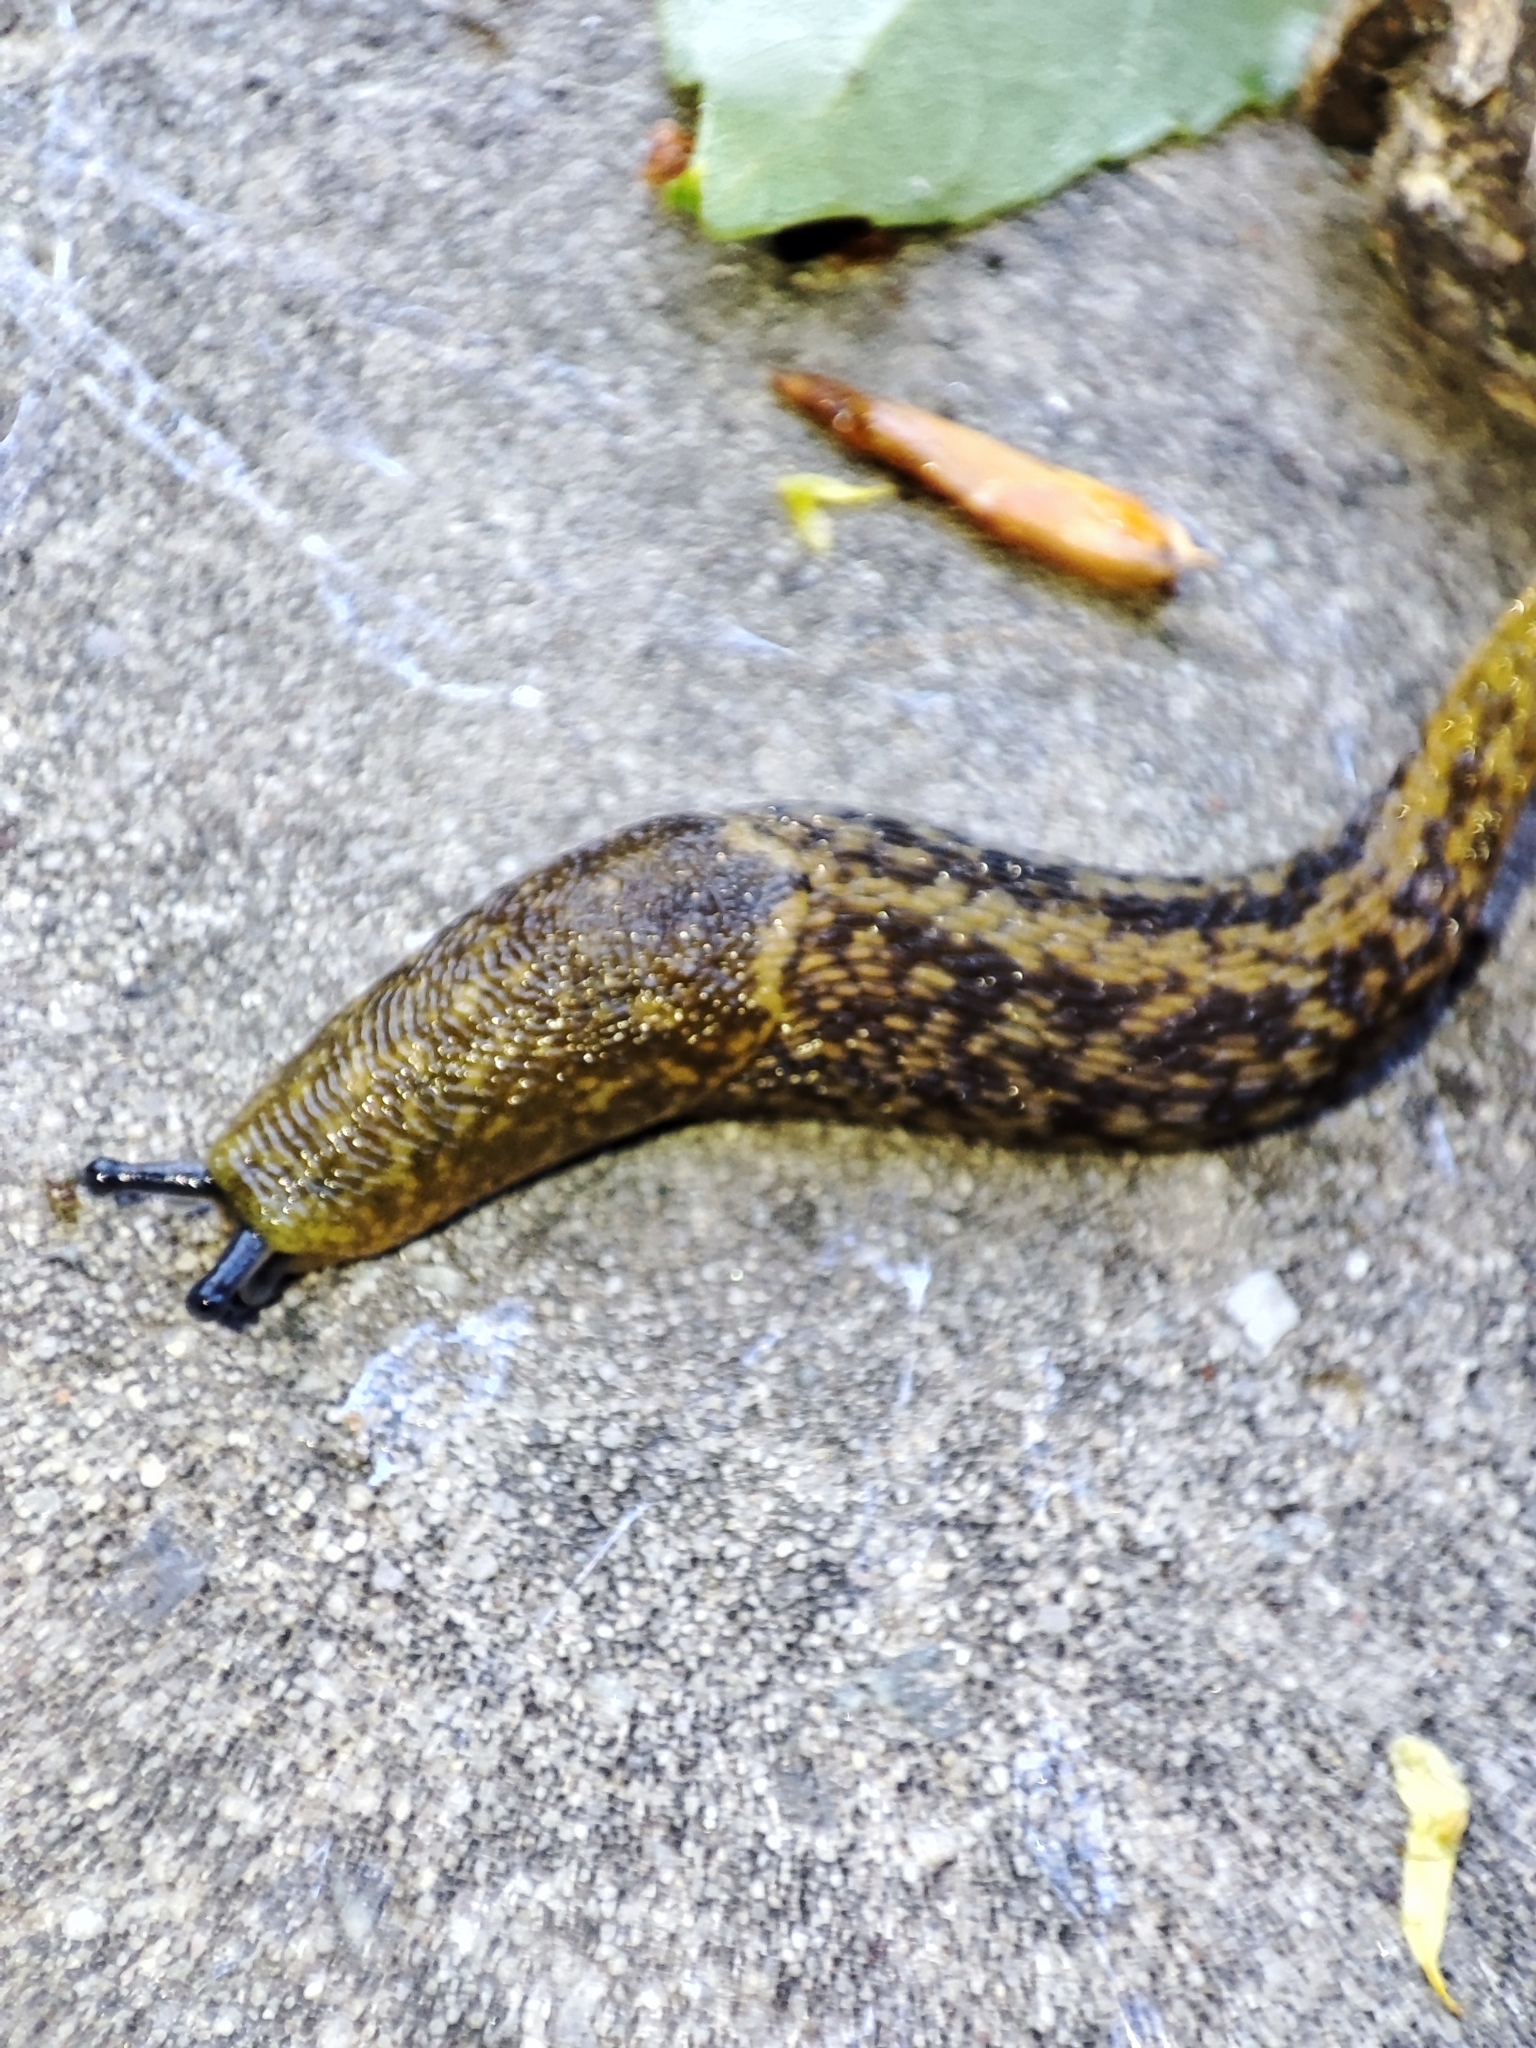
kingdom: Animalia
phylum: Mollusca
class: Gastropoda
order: Stylommatophora
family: Limacidae
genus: Limacus
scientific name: Limacus flavus
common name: Yellow gardenslug
